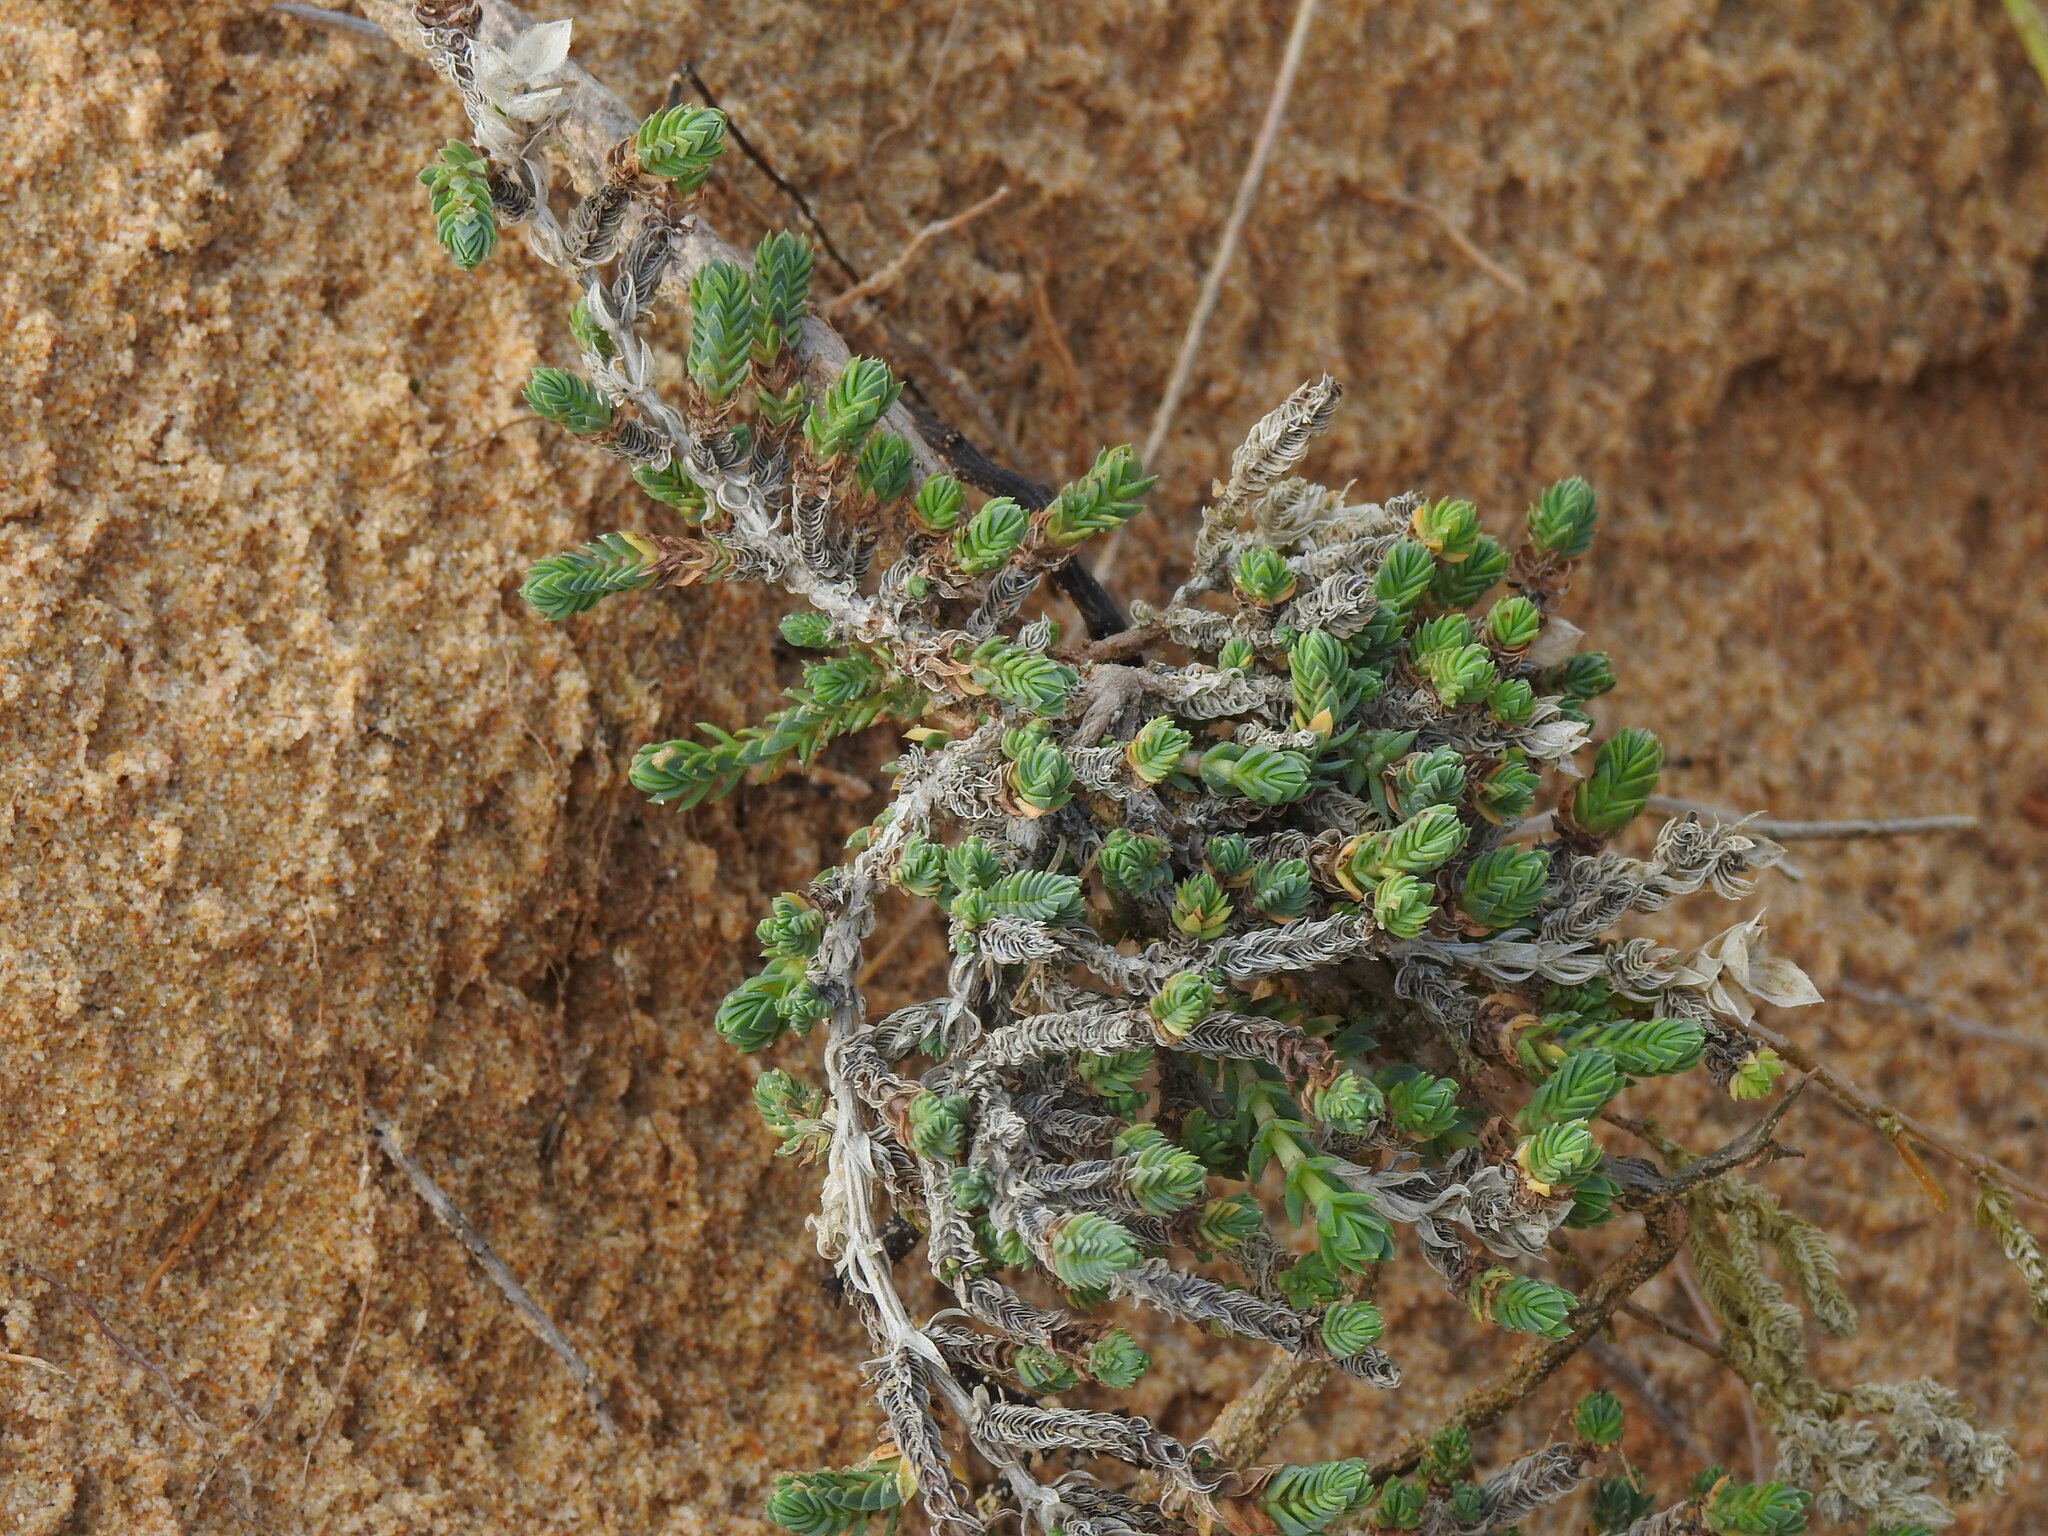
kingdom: Plantae
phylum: Tracheophyta
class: Magnoliopsida
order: Gentianales
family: Rubiaceae
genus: Crucianella
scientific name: Crucianella maritima
